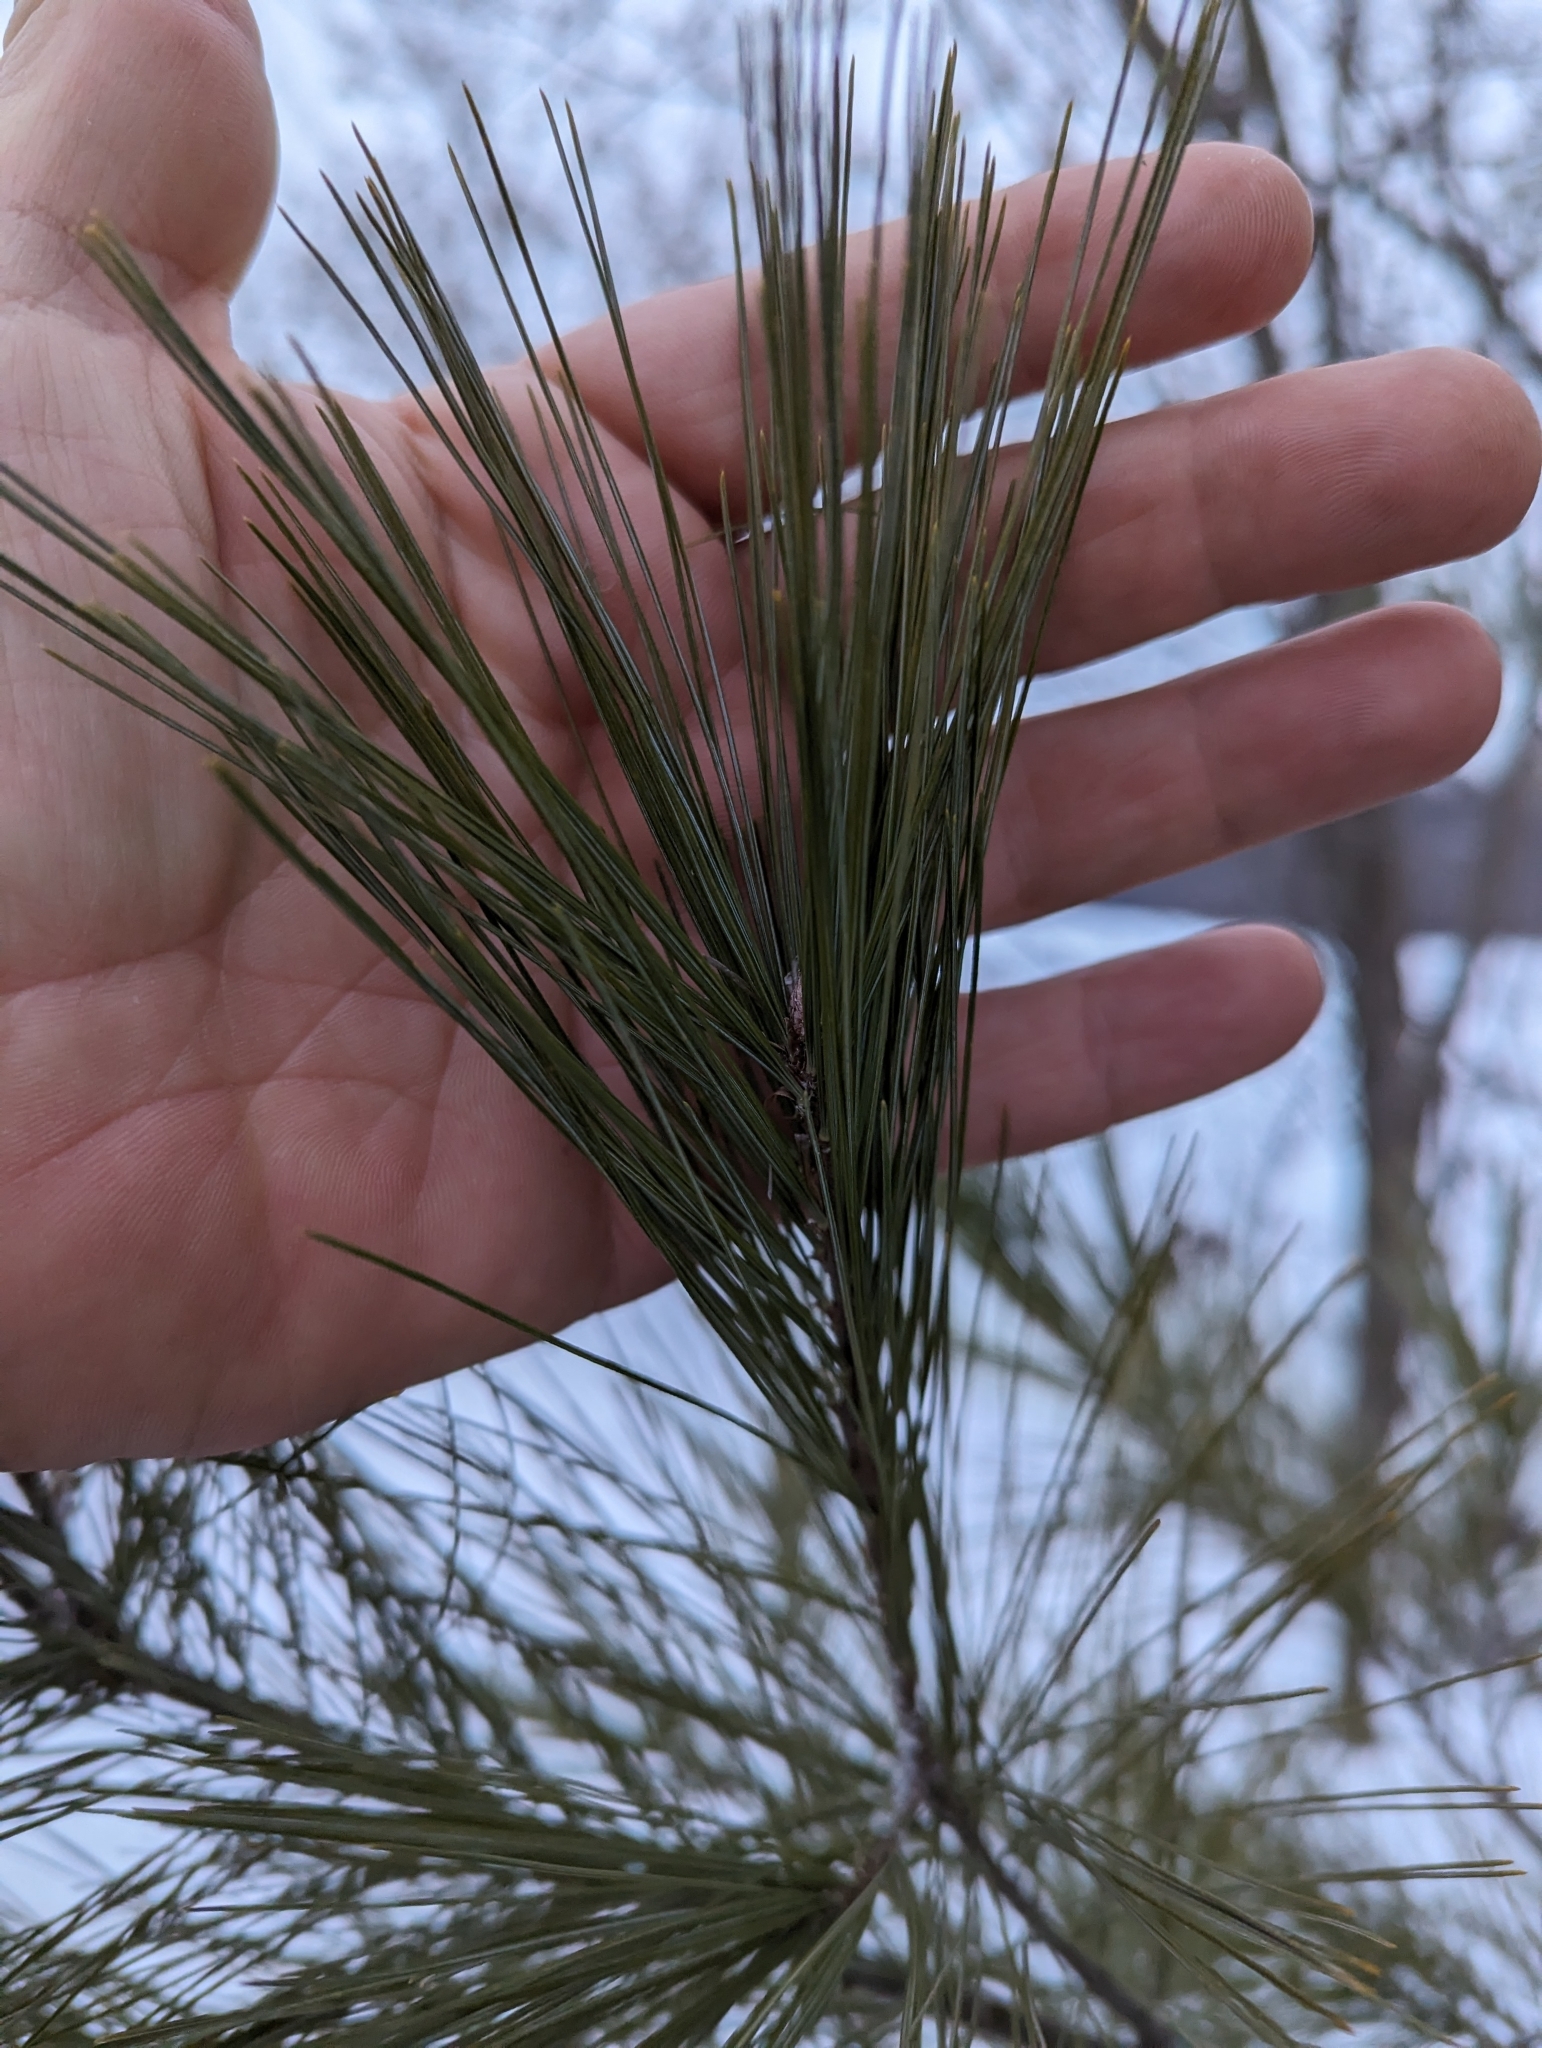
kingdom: Plantae
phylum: Tracheophyta
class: Pinopsida
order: Pinales
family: Pinaceae
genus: Pinus
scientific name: Pinus strobus
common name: Weymouth pine
